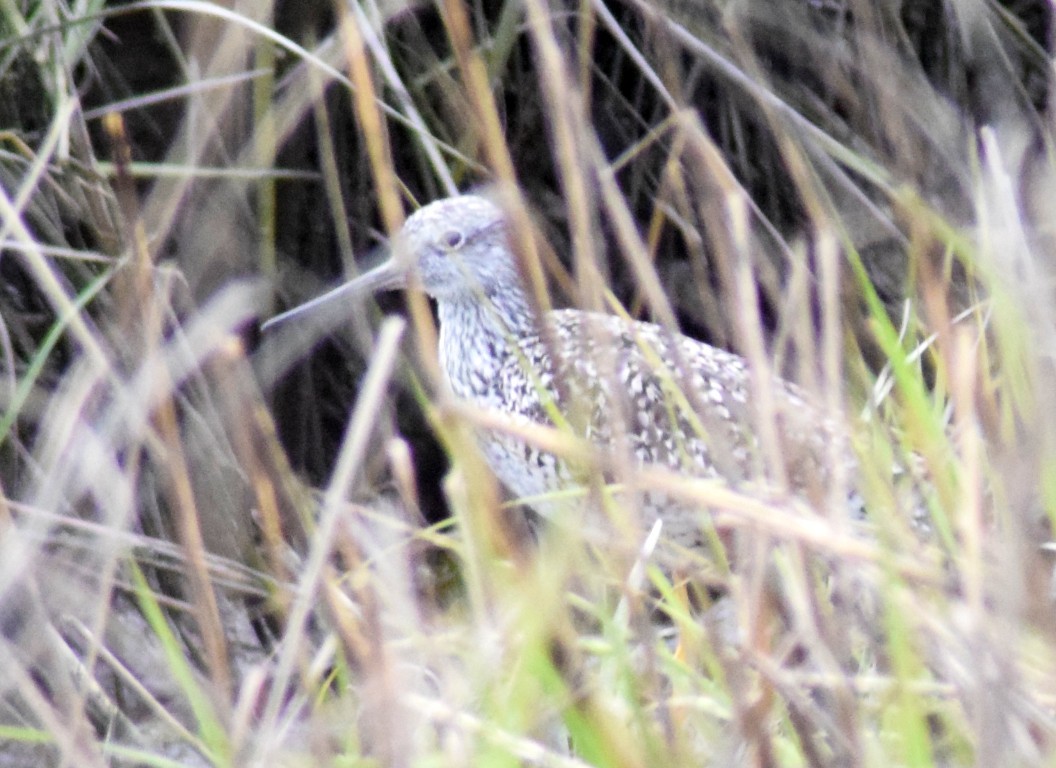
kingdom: Animalia
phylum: Chordata
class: Aves
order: Charadriiformes
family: Scolopacidae
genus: Tringa
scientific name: Tringa melanoleuca
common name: Greater yellowlegs
